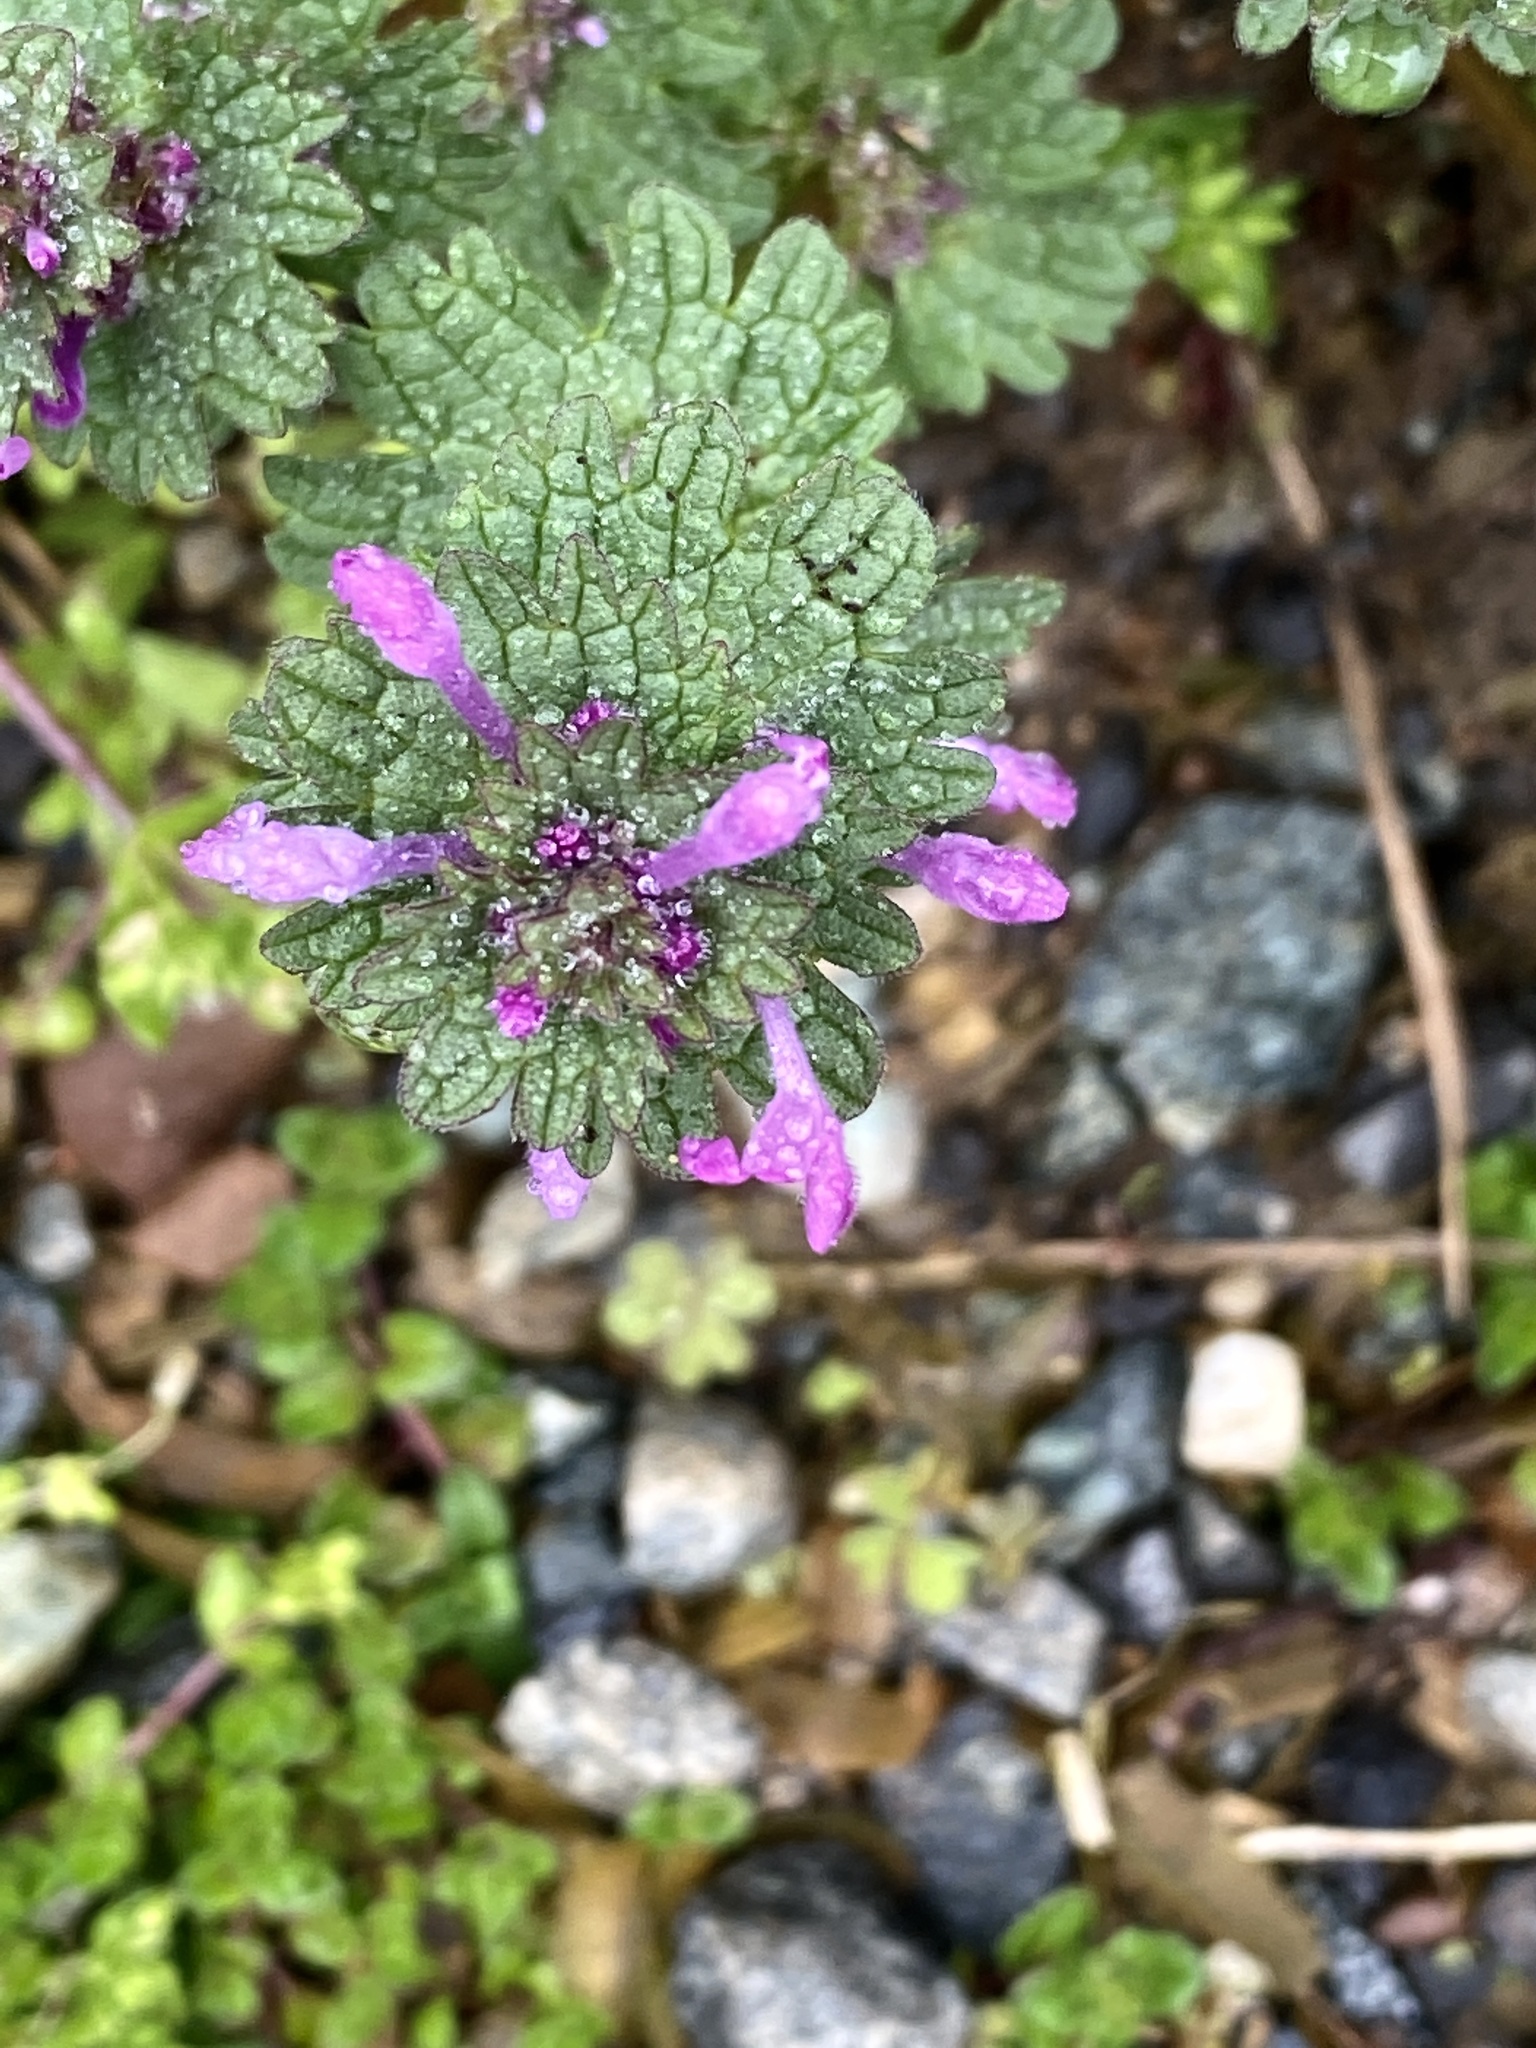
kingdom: Plantae
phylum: Tracheophyta
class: Magnoliopsida
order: Lamiales
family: Lamiaceae
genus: Lamium
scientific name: Lamium amplexicaule
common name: Henbit dead-nettle
